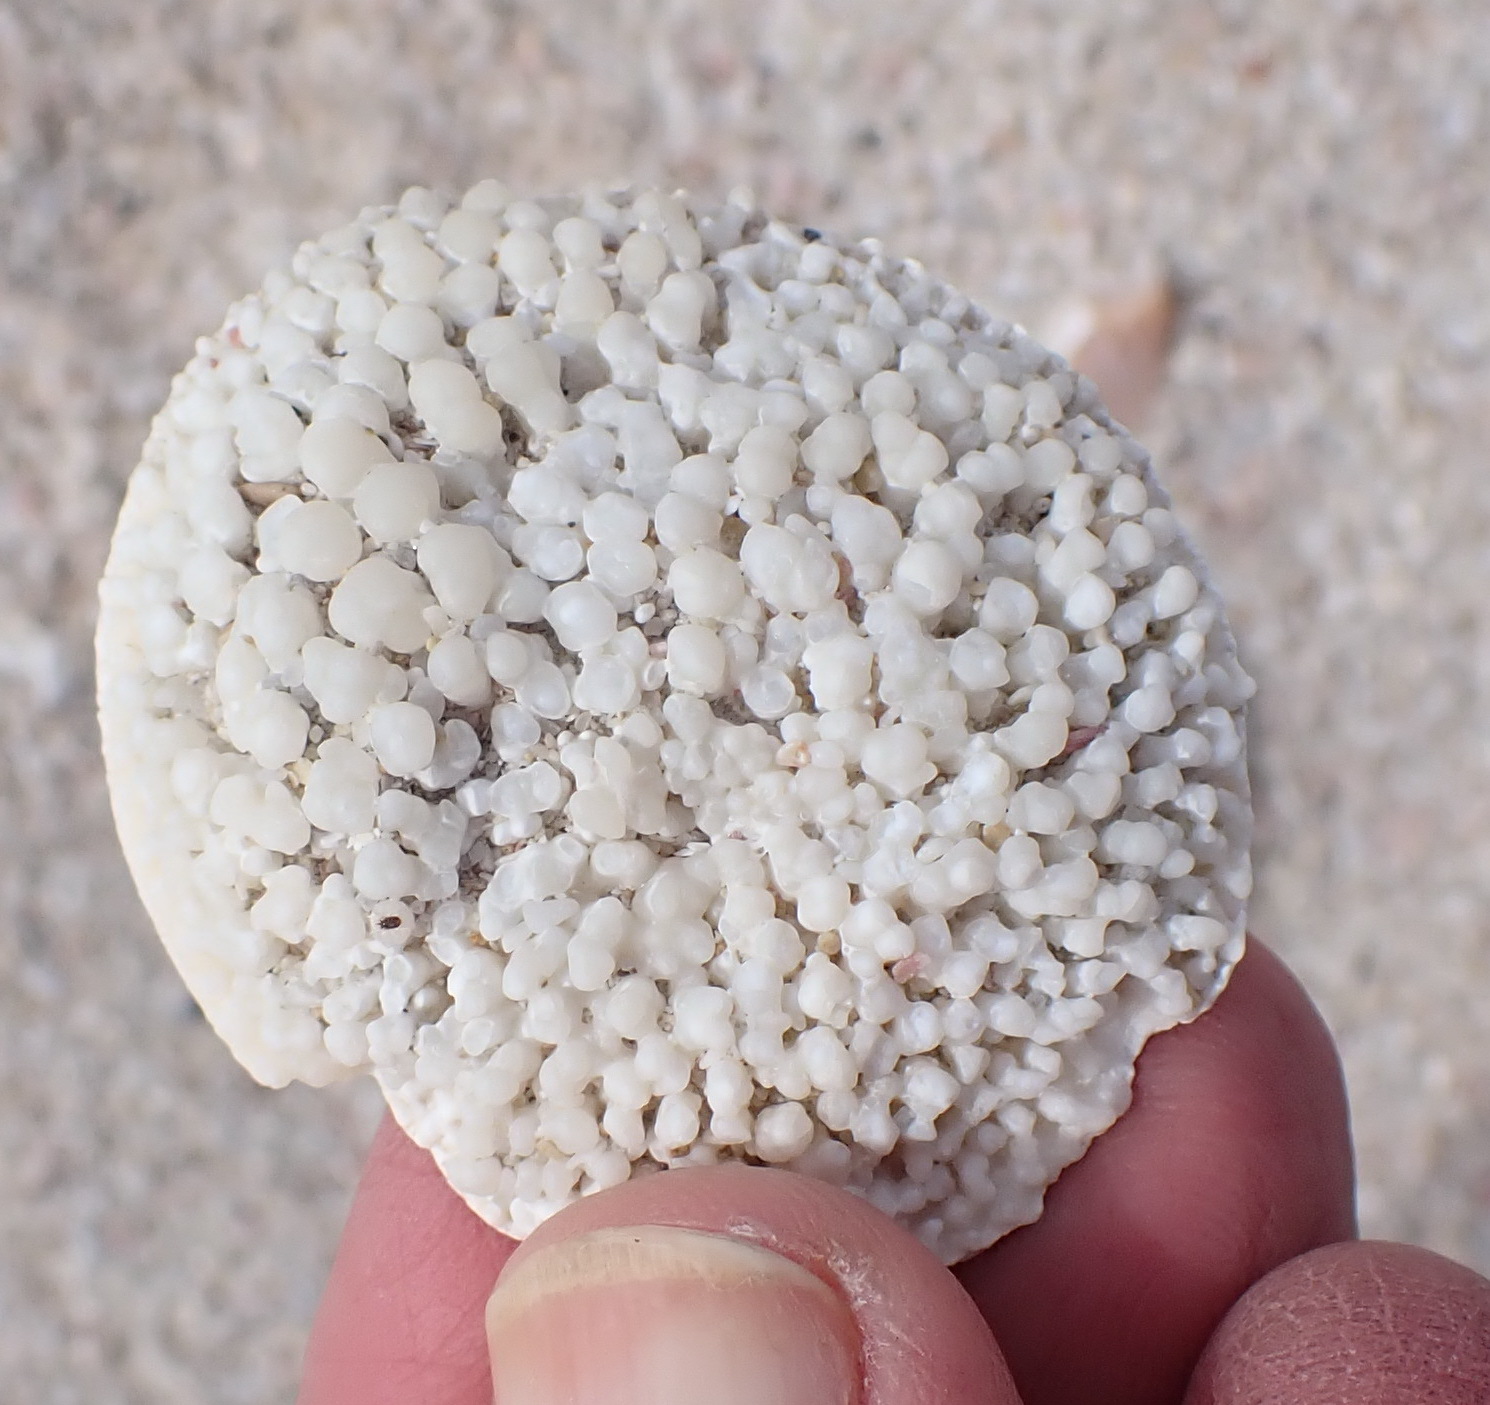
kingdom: Animalia
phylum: Mollusca
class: Gastropoda
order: Trochida
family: Turbinidae
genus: Turbo
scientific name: Turbo sarmaticus
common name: South african turban
